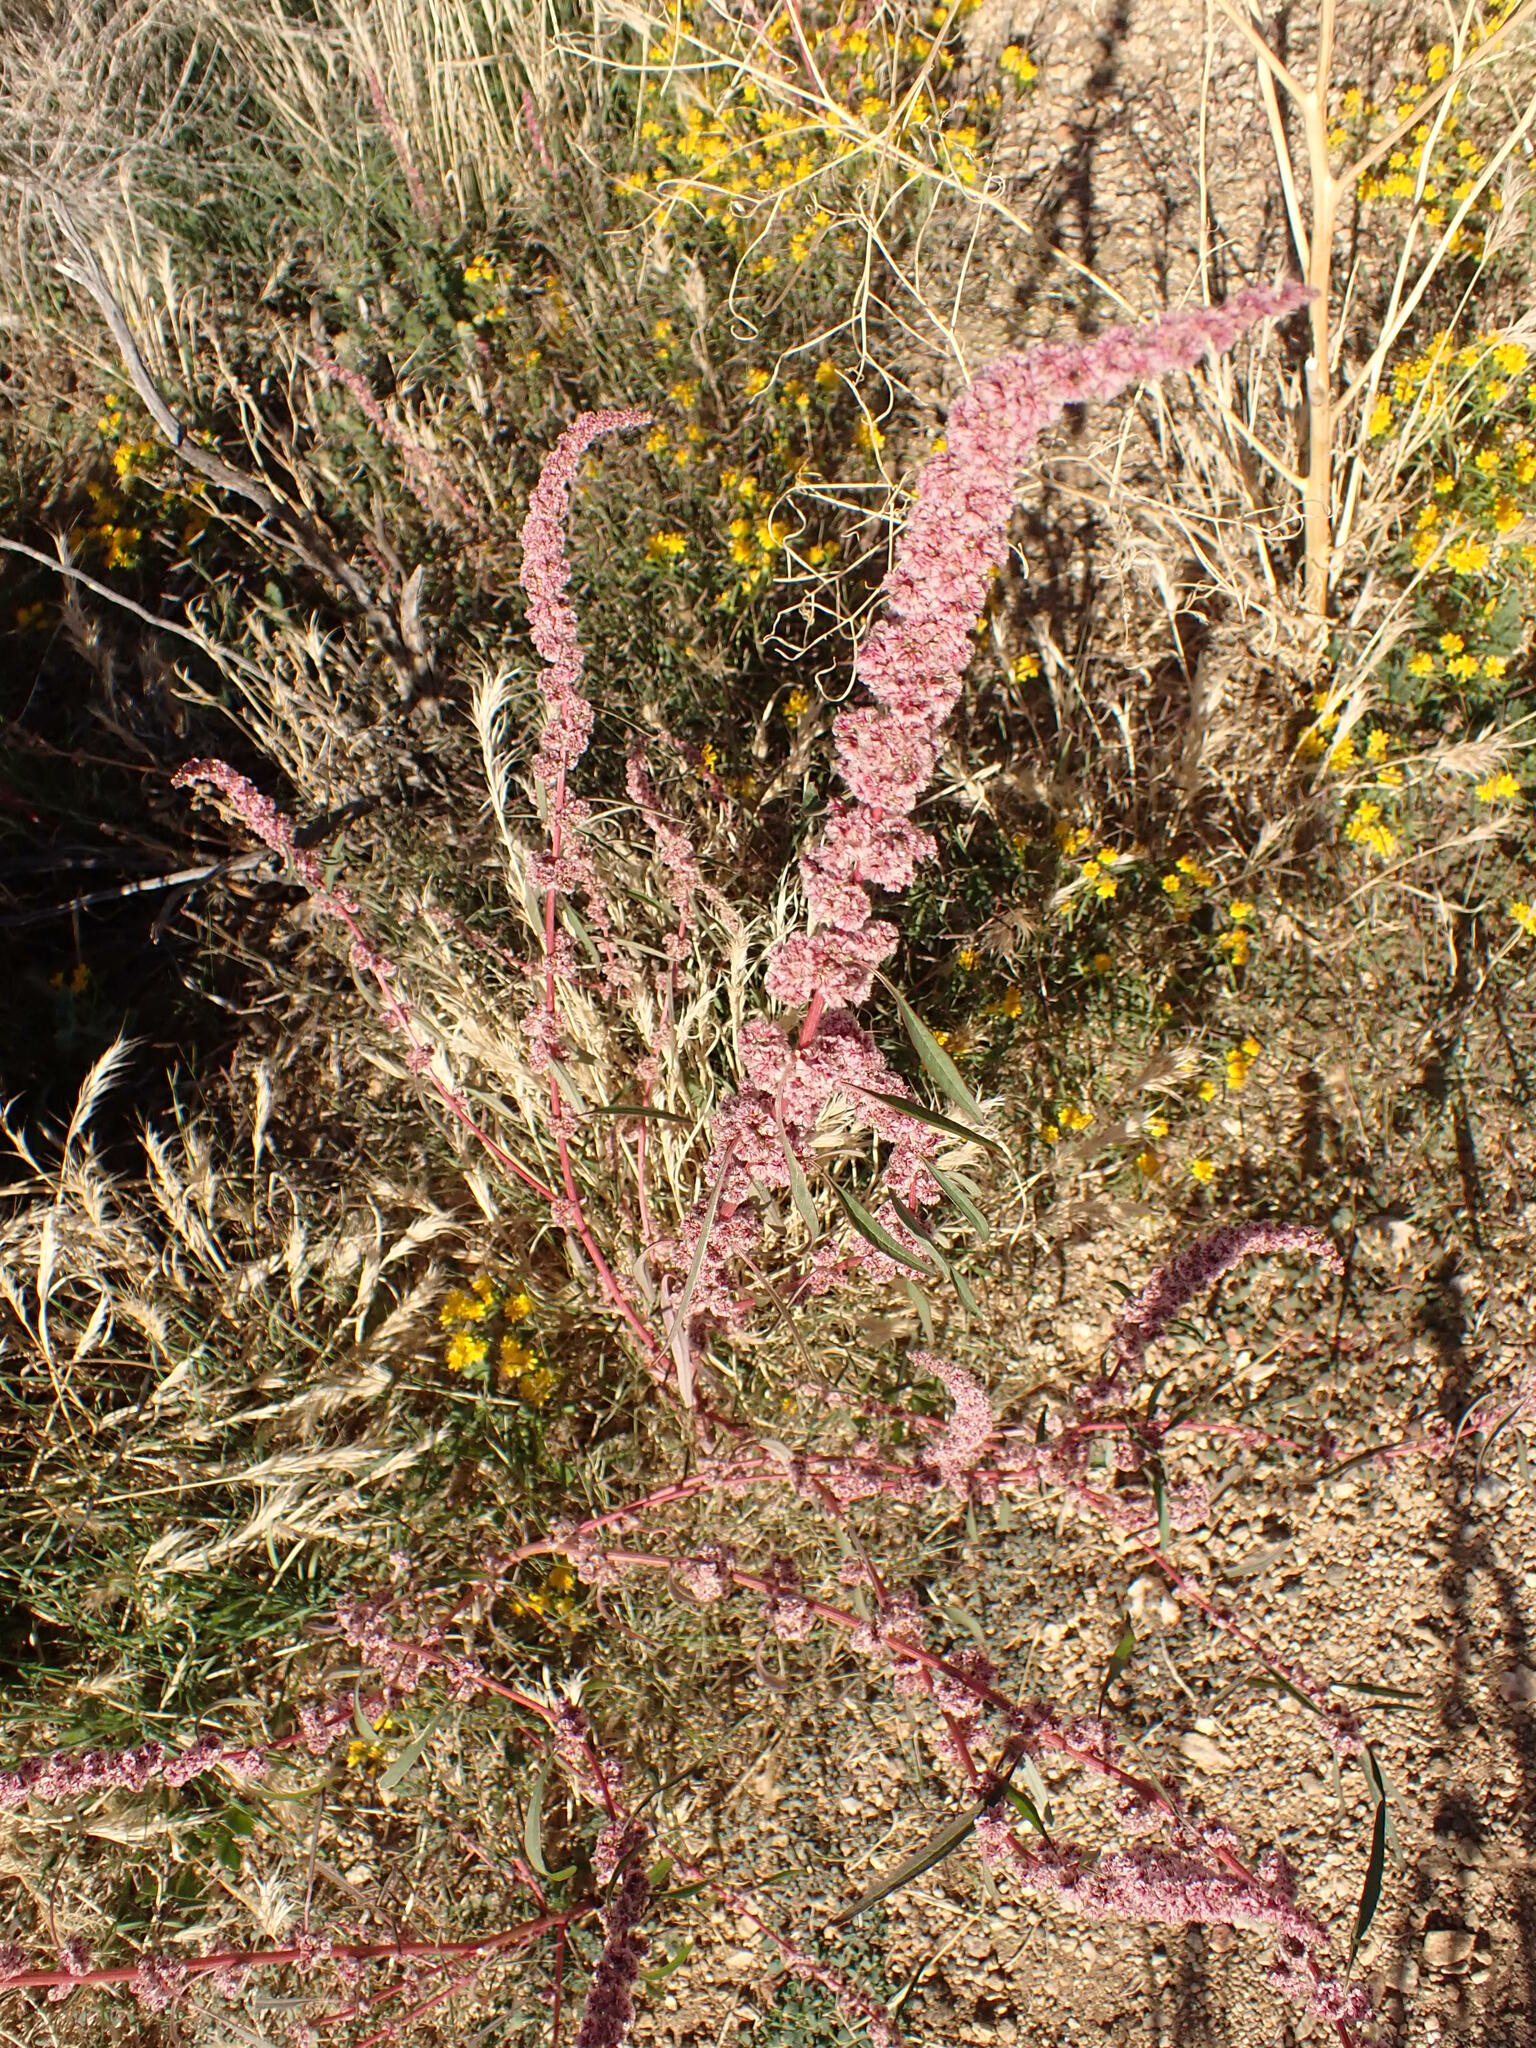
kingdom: Plantae
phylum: Tracheophyta
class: Magnoliopsida
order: Caryophyllales
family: Amaranthaceae
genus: Amaranthus
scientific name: Amaranthus fimbriatus
